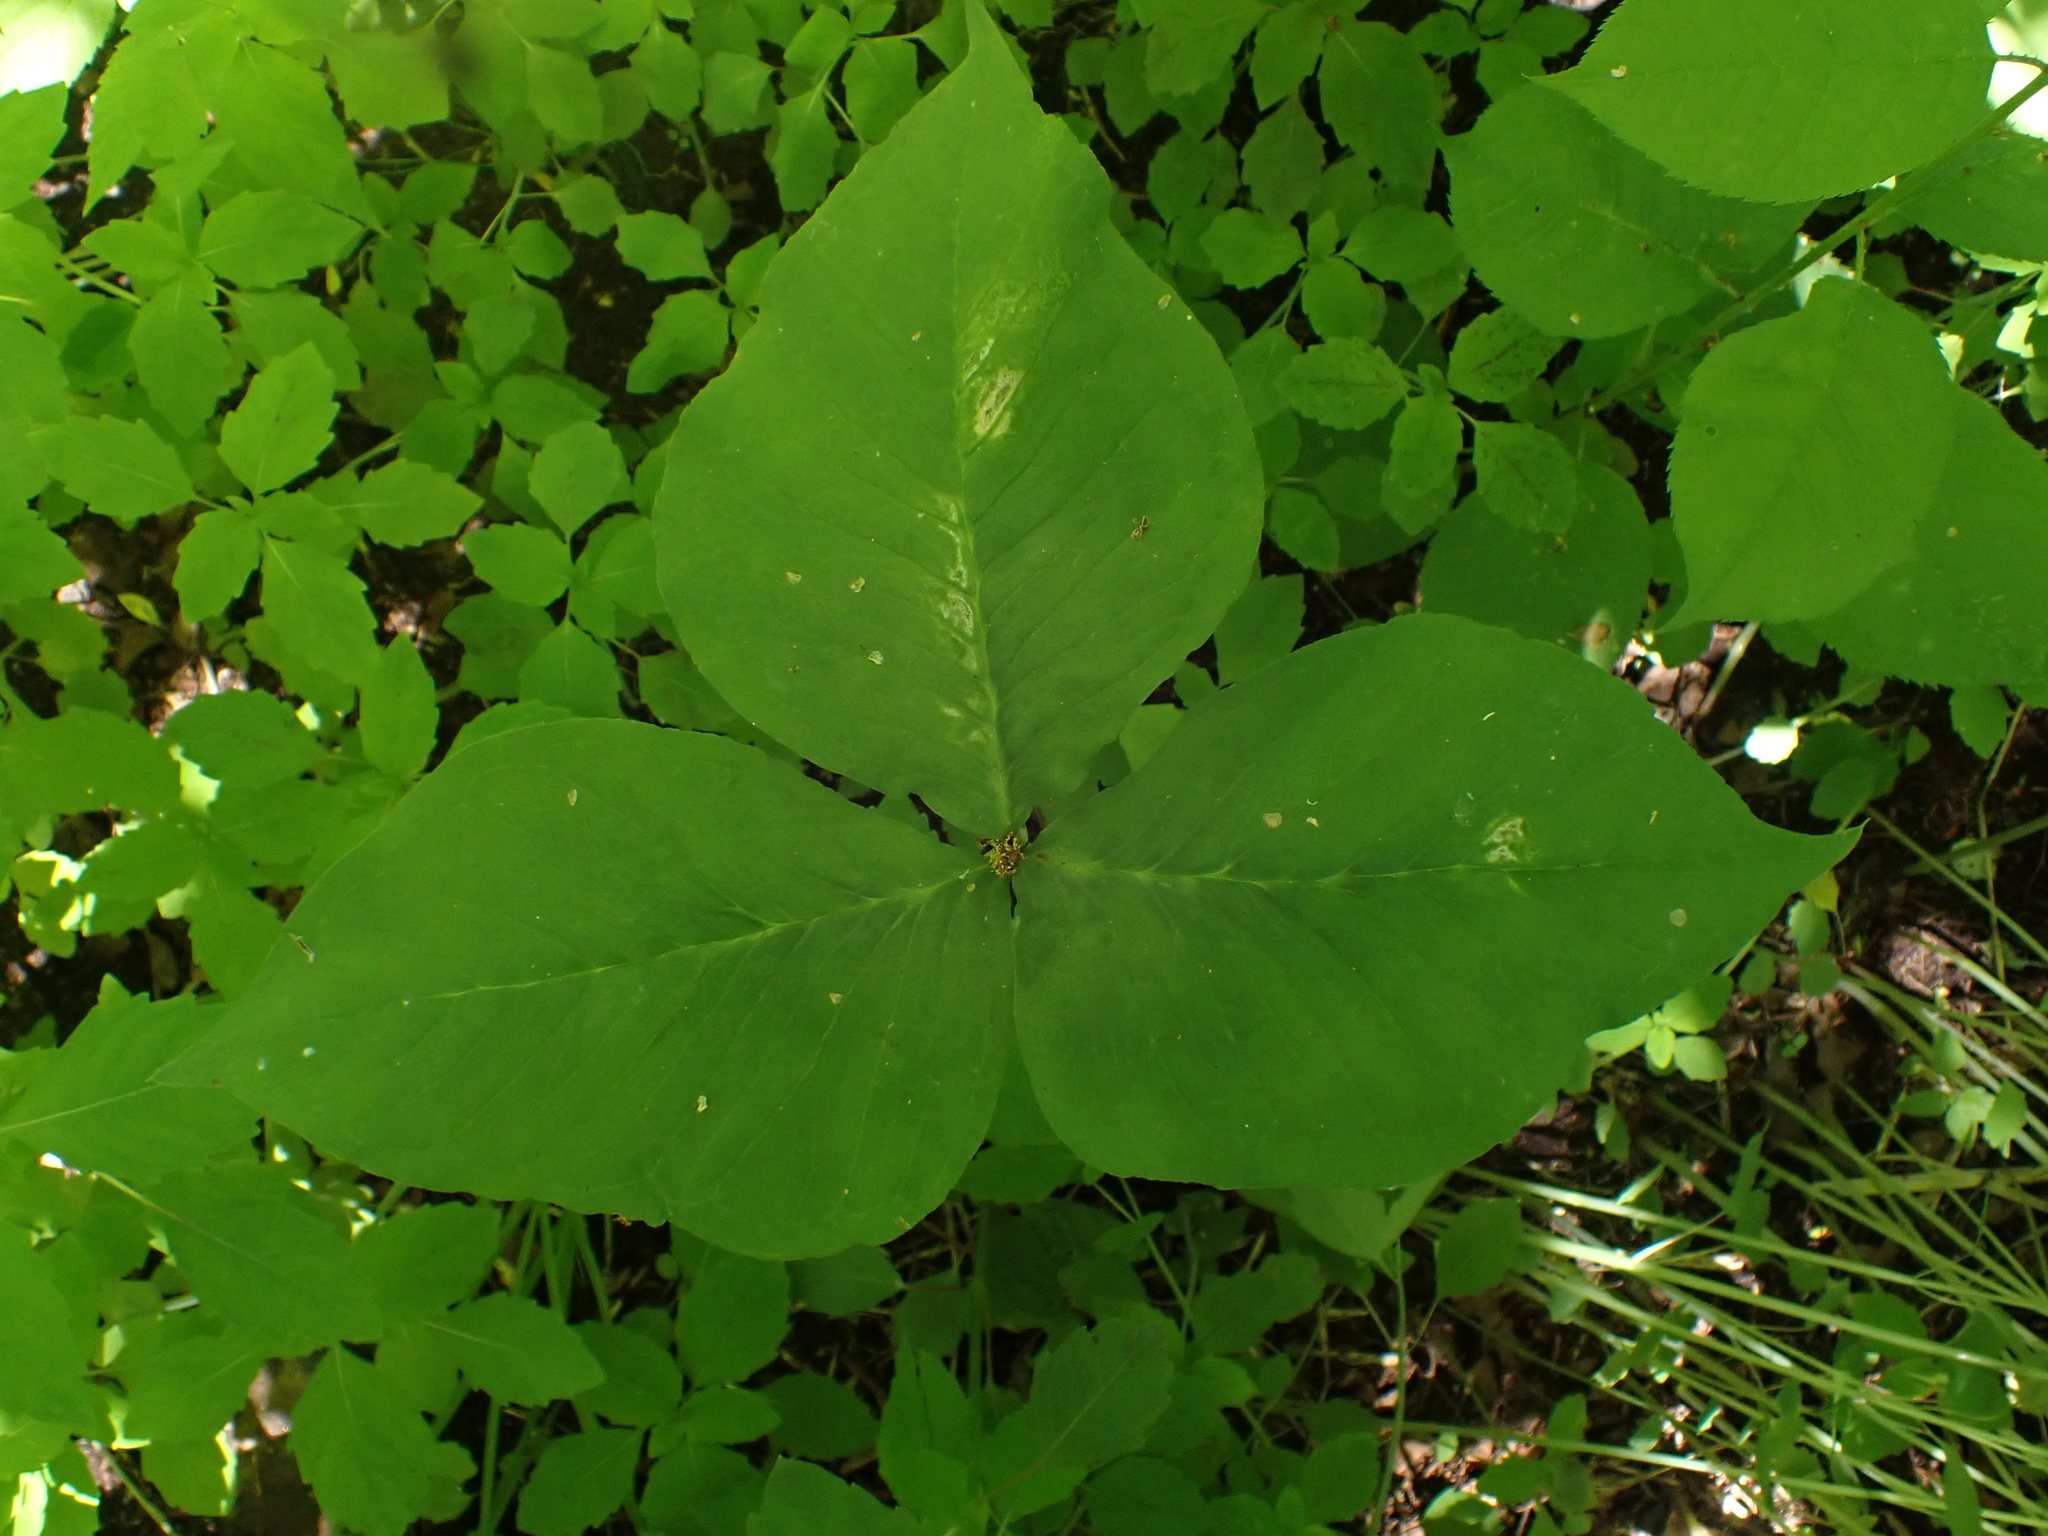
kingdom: Plantae
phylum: Tracheophyta
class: Liliopsida
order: Alismatales
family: Araceae
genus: Arisaema
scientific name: Arisaema
